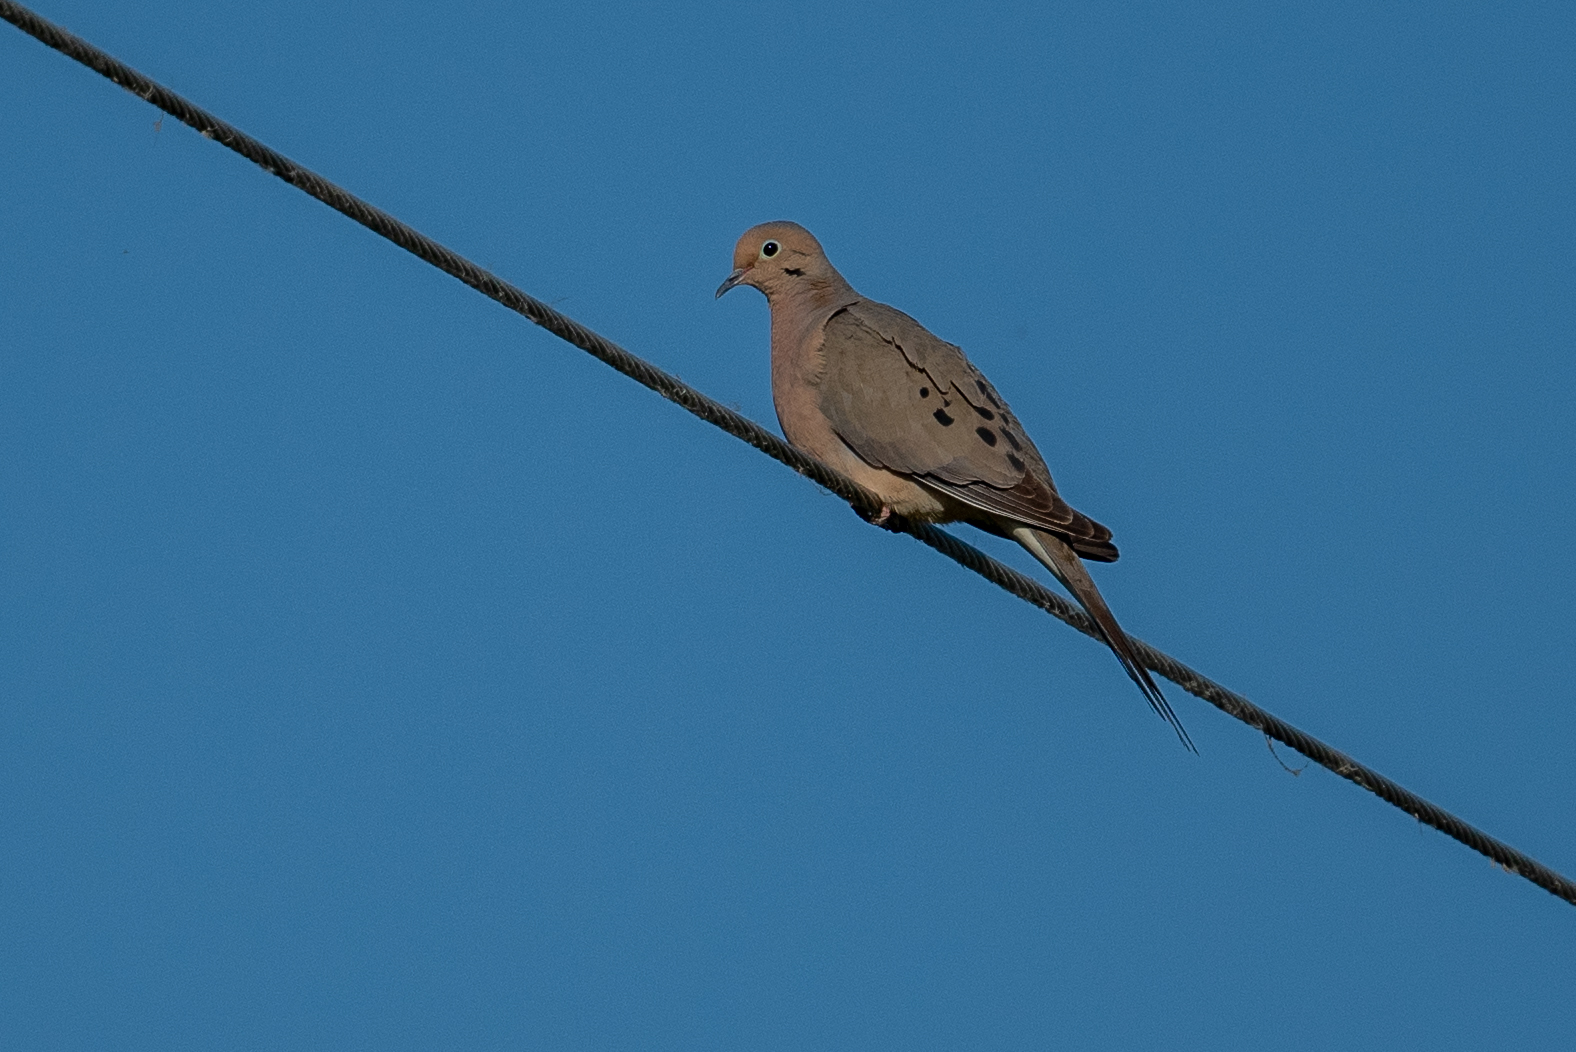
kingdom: Animalia
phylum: Chordata
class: Aves
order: Columbiformes
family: Columbidae
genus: Zenaida
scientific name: Zenaida macroura
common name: Mourning dove
